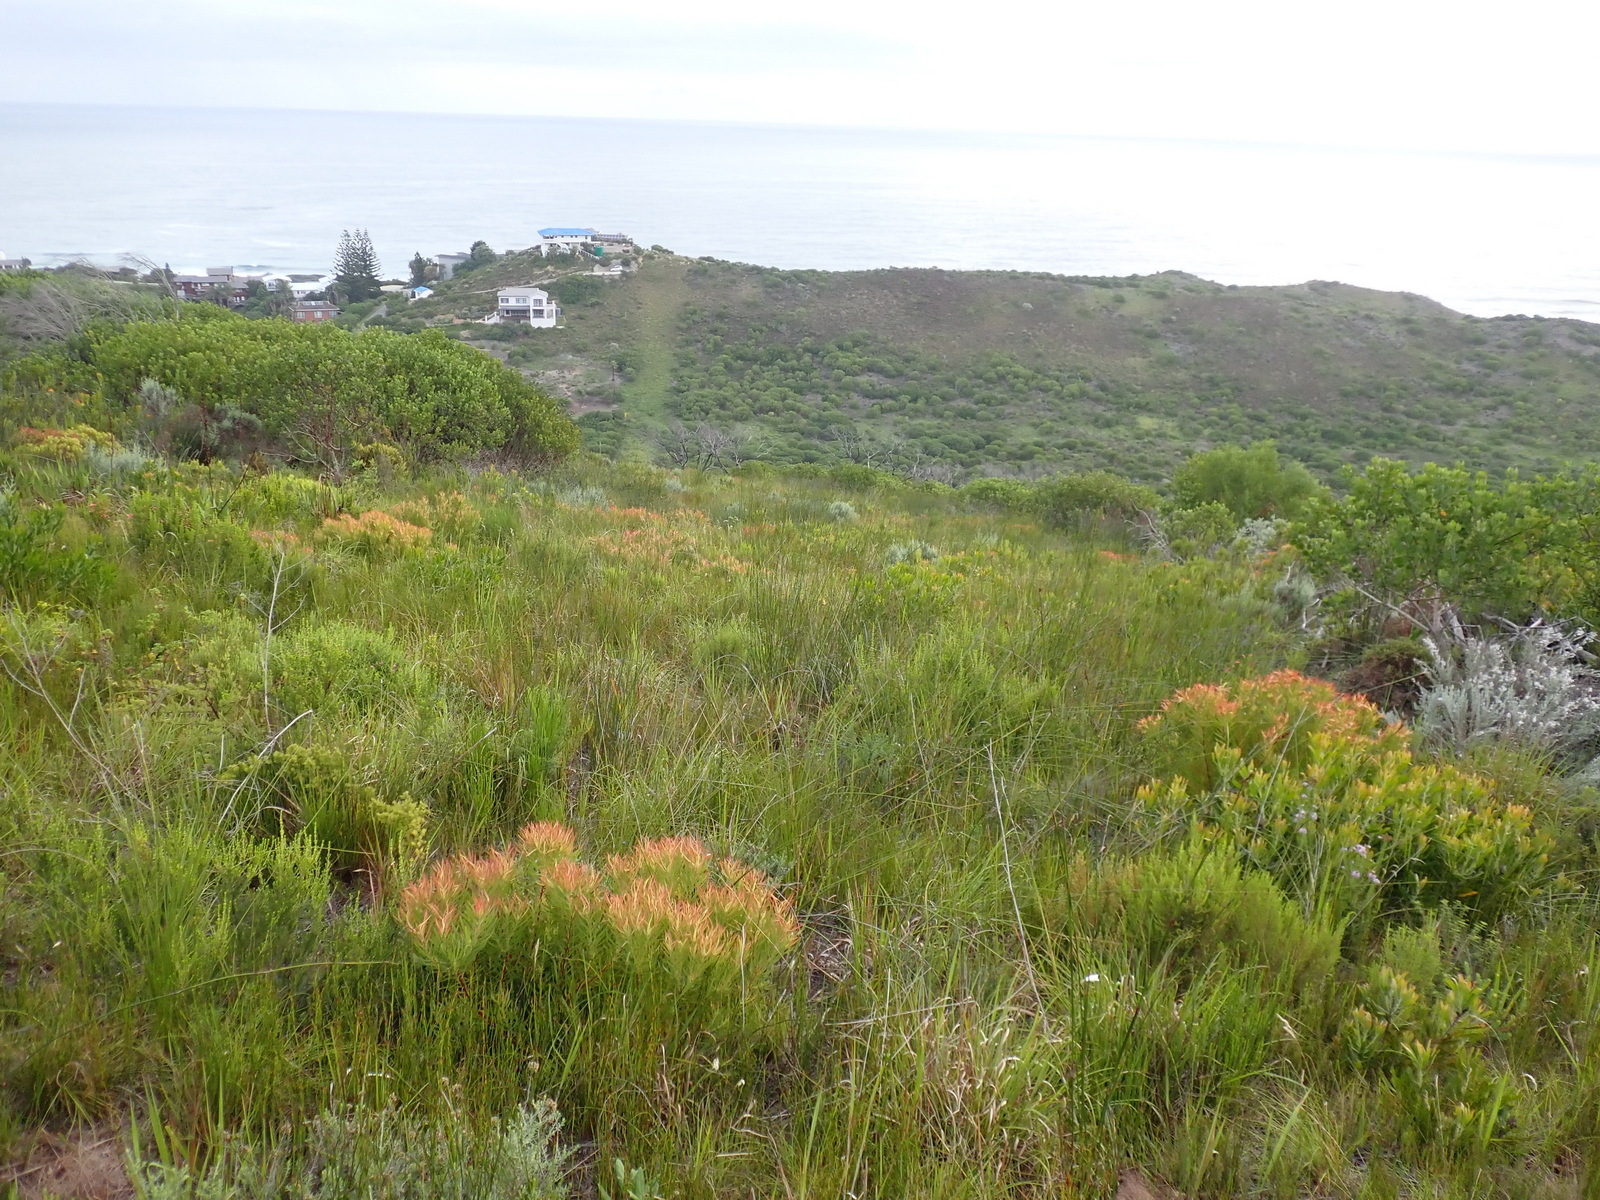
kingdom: Plantae
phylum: Tracheophyta
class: Liliopsida
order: Asparagales
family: Iridaceae
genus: Gladiolus
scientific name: Gladiolus vaginatus
